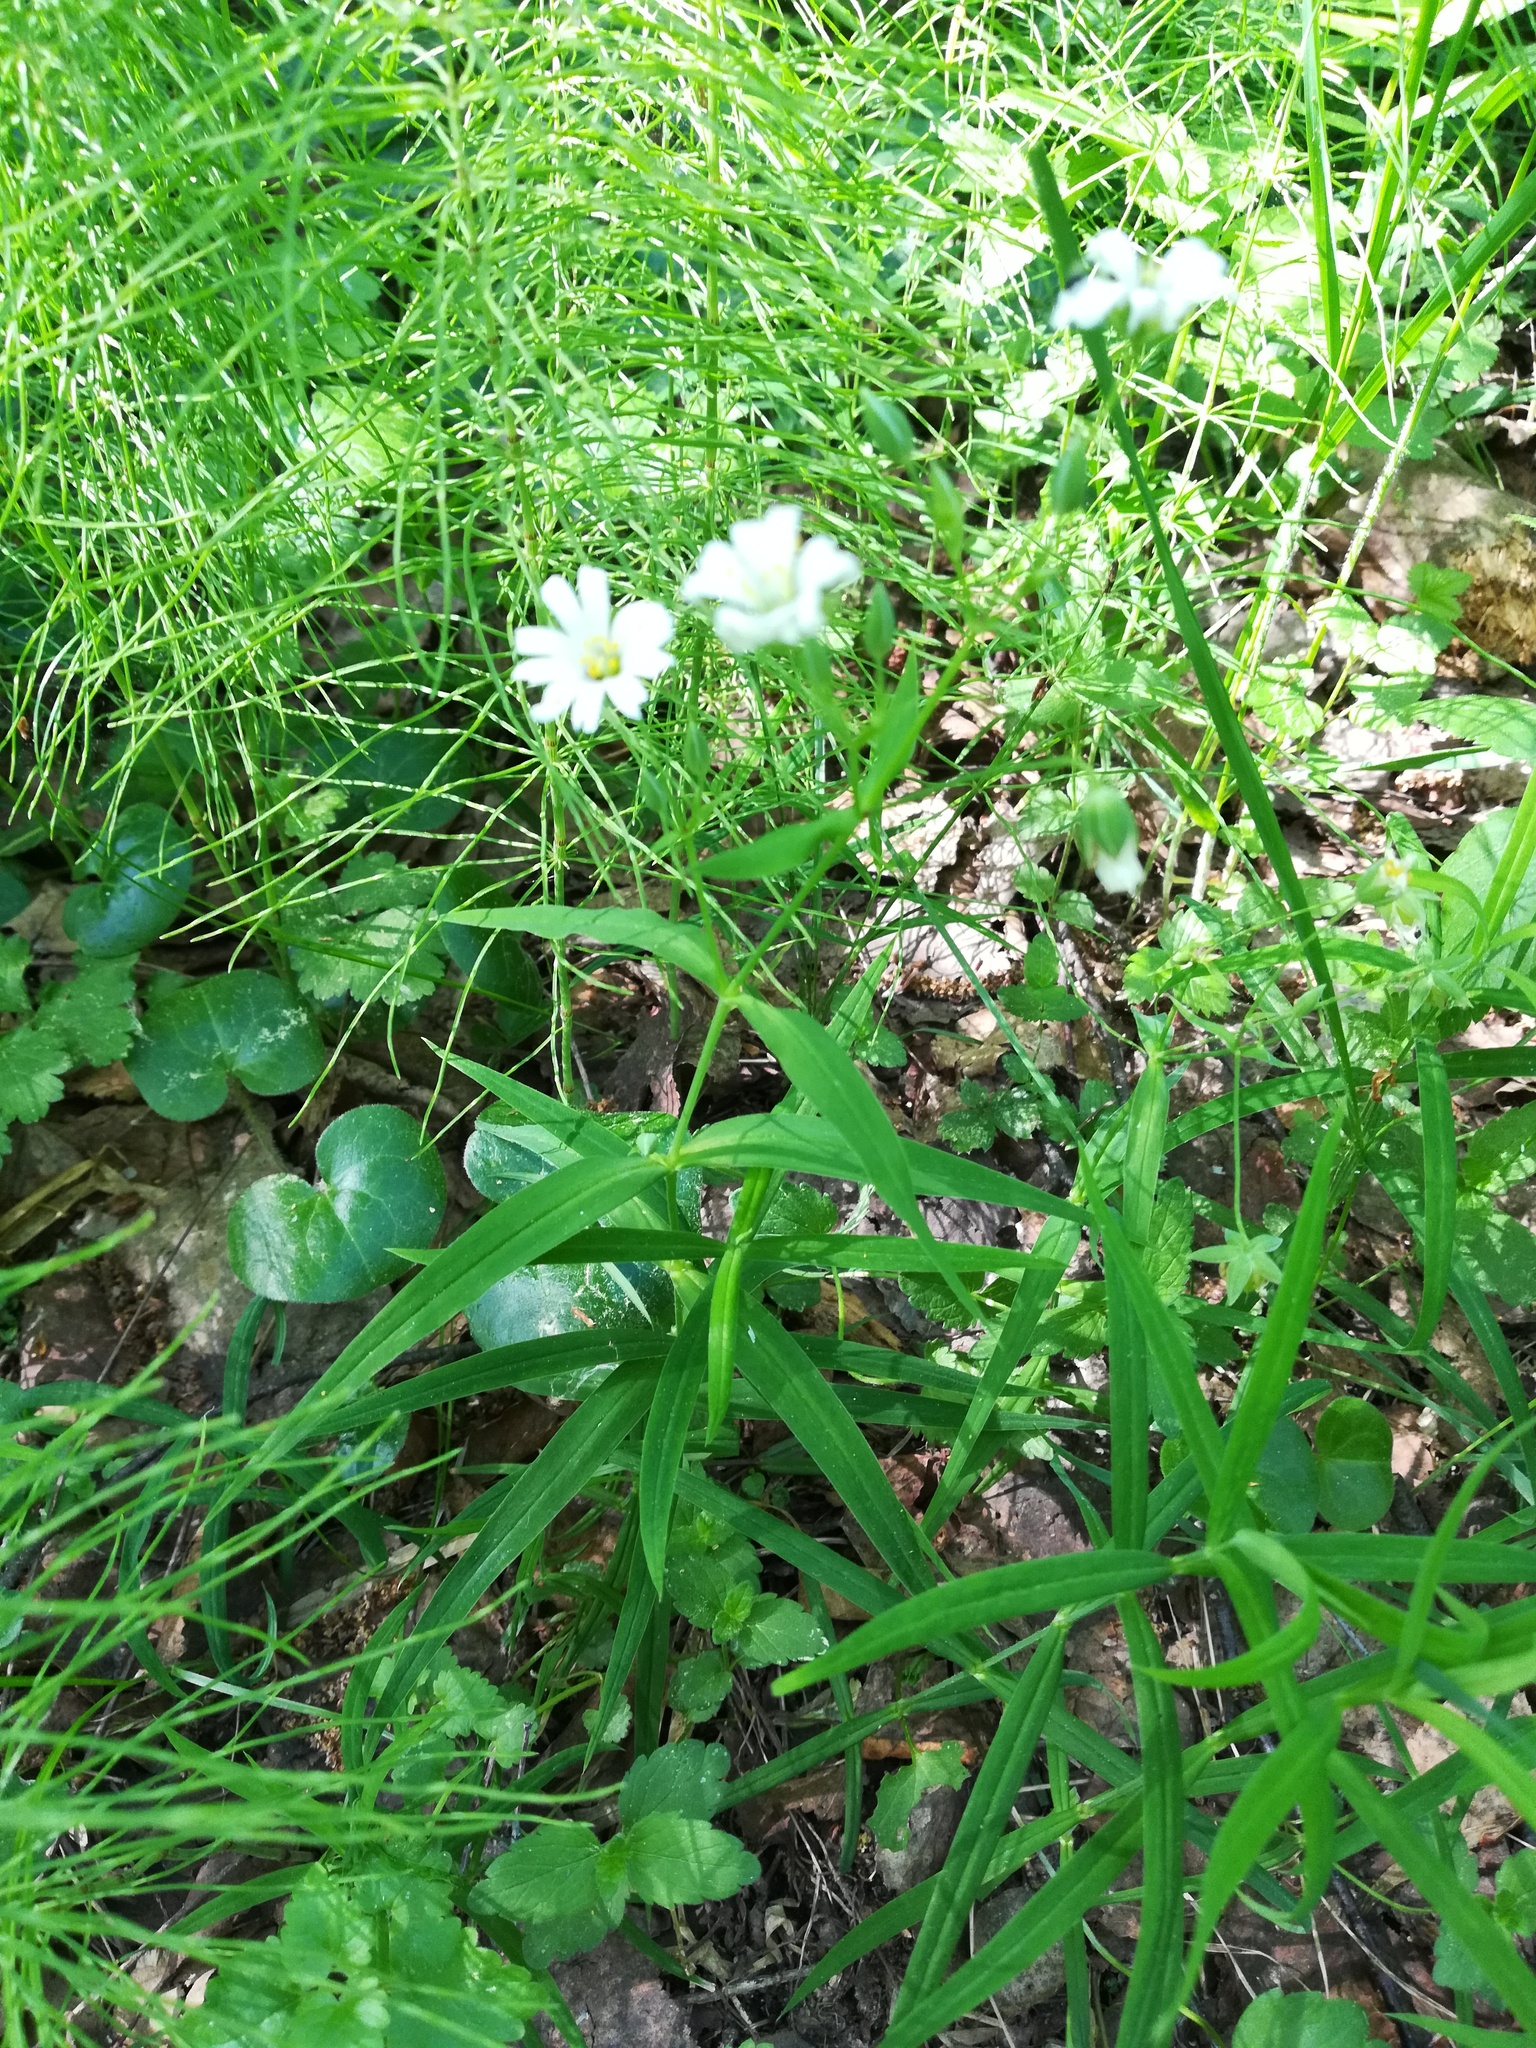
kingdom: Plantae
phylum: Tracheophyta
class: Magnoliopsida
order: Caryophyllales
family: Caryophyllaceae
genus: Rabelera
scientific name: Rabelera holostea
